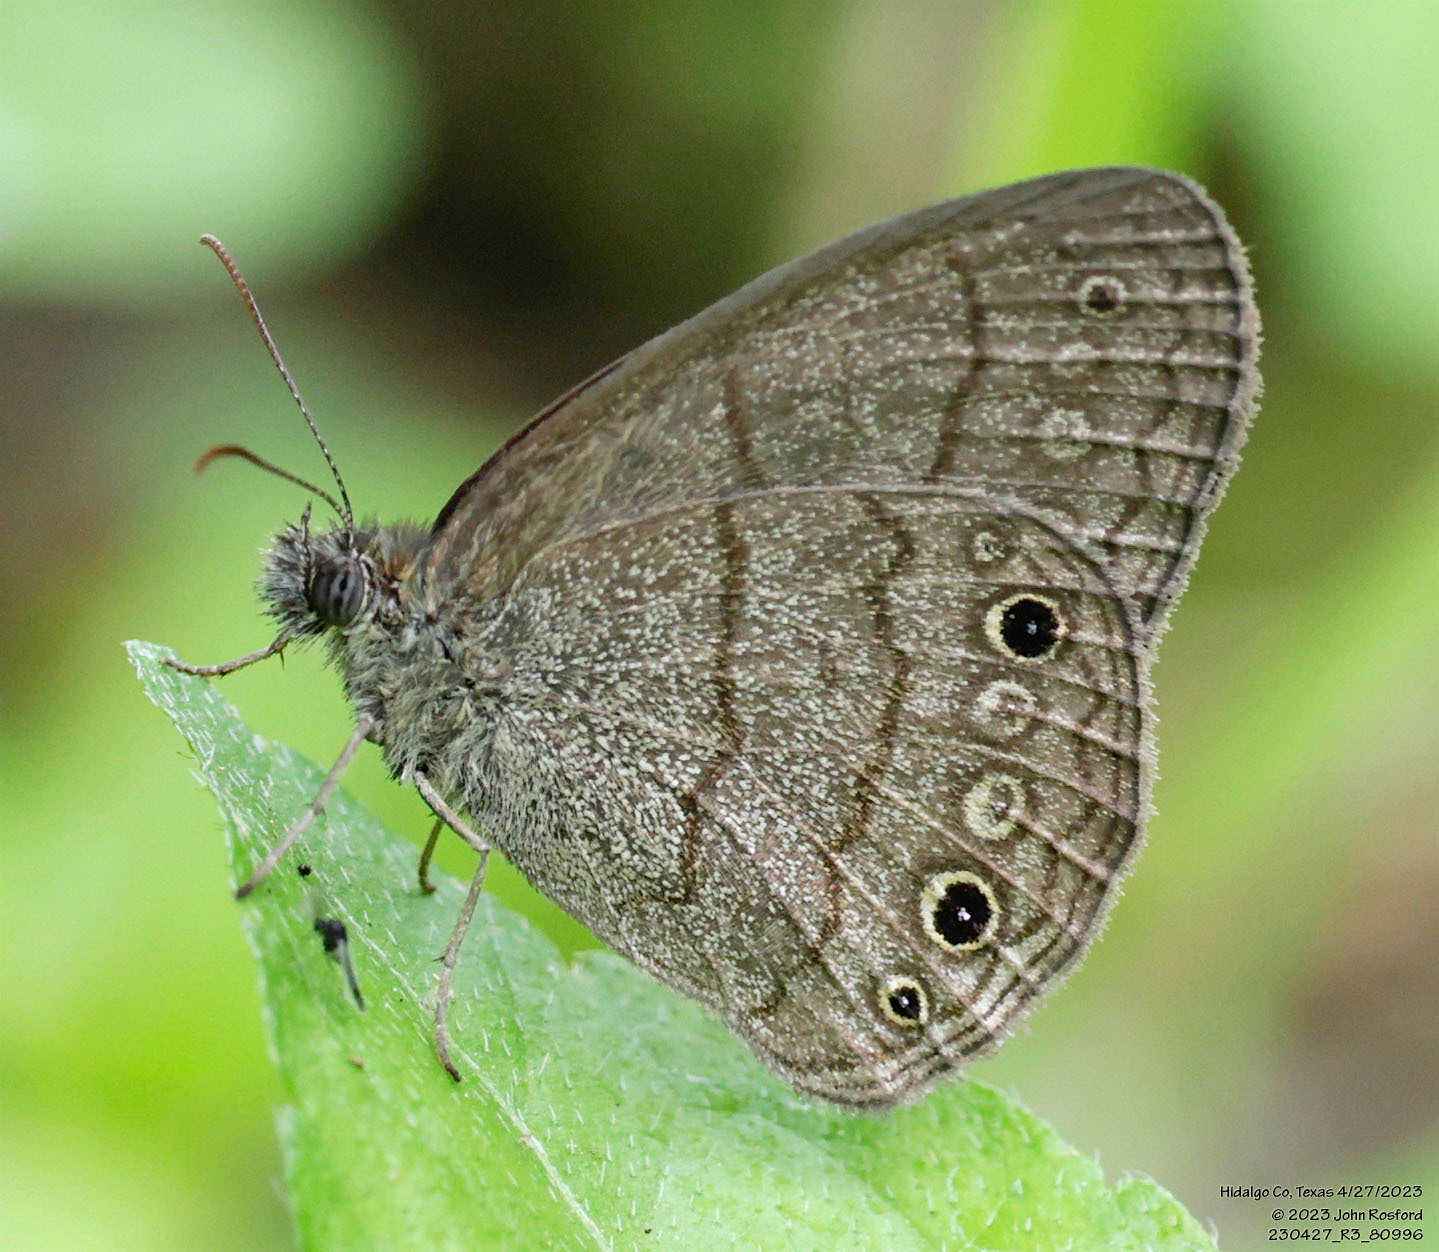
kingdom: Animalia
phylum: Arthropoda
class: Insecta
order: Lepidoptera
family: Nymphalidae
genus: Hermeuptychia
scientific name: Hermeuptychia hermybius
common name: South texas satyr
